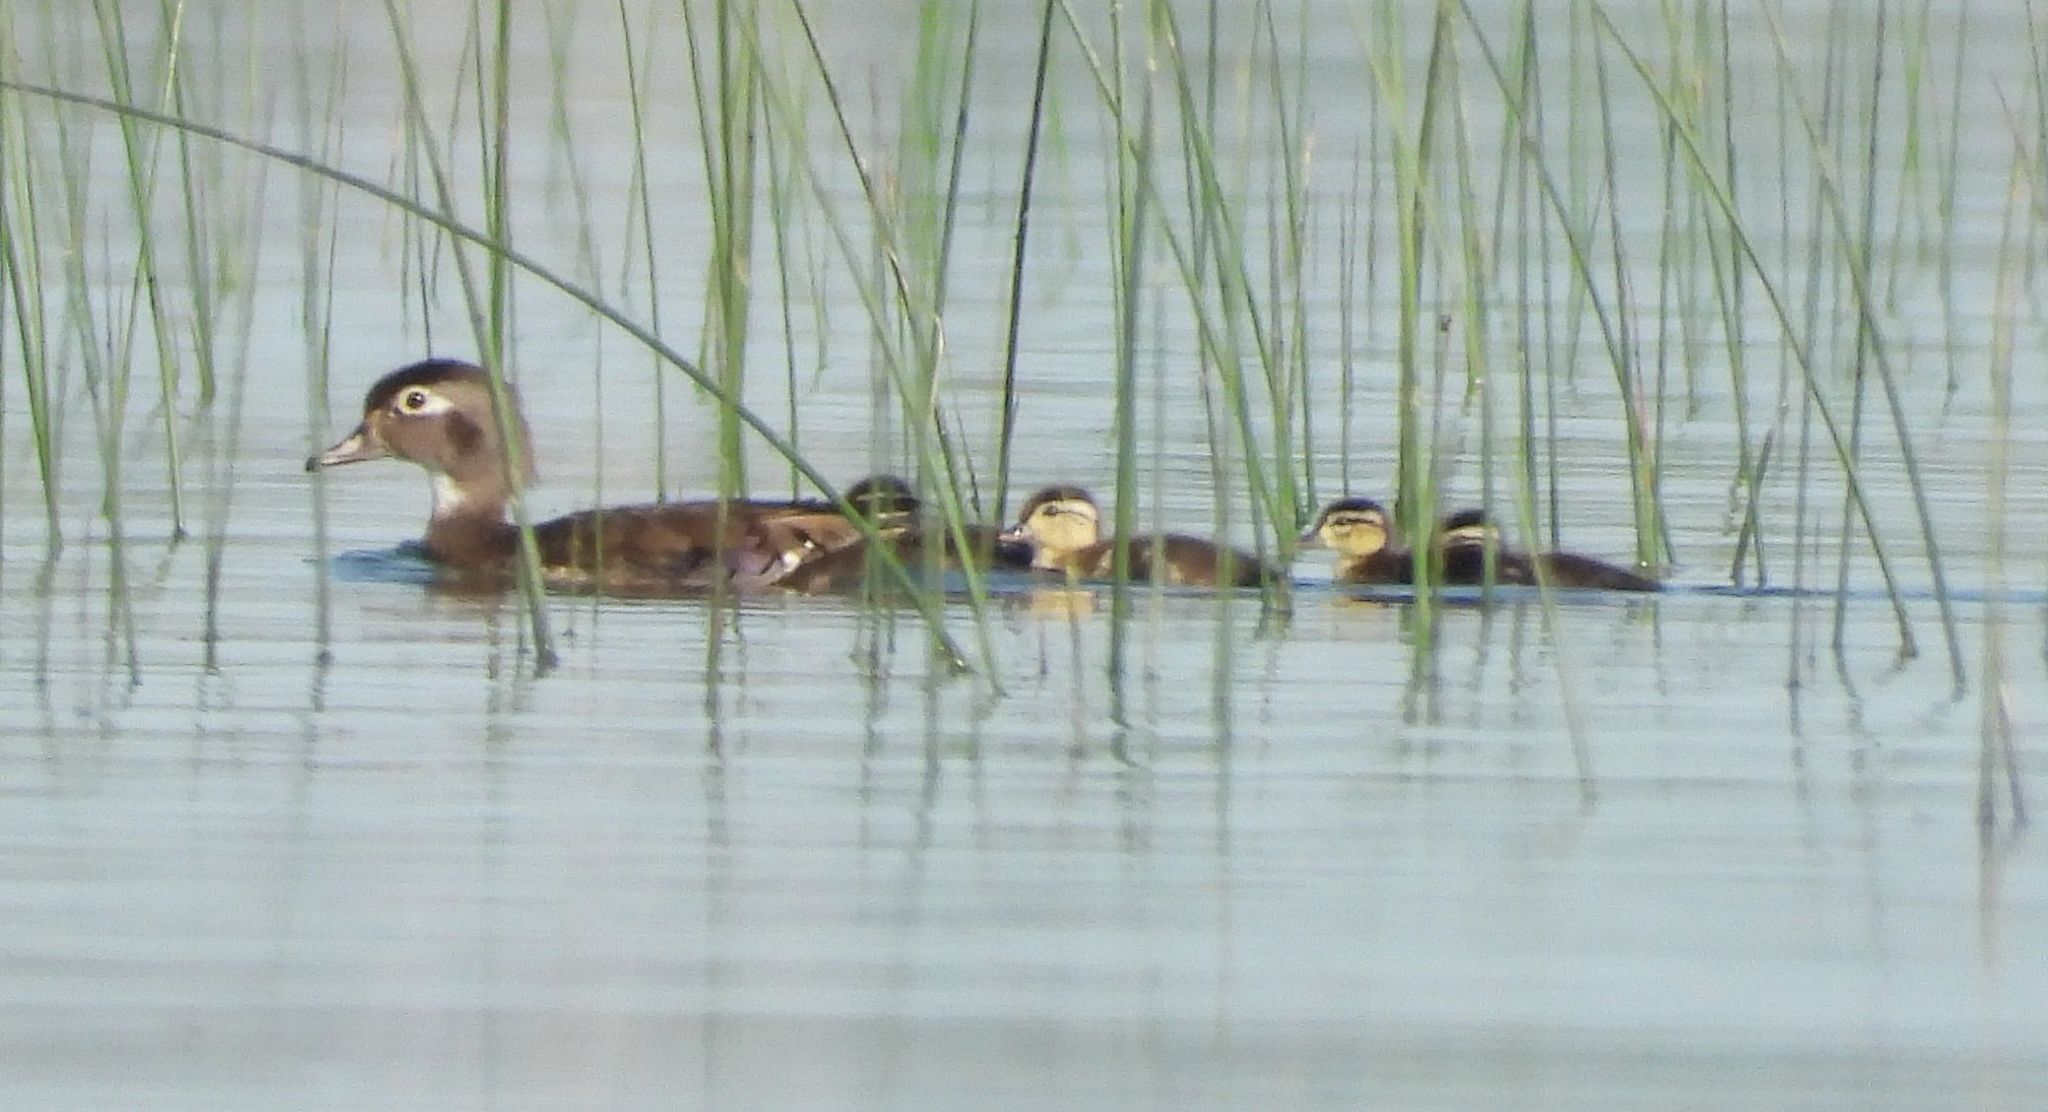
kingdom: Animalia
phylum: Chordata
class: Aves
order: Anseriformes
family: Anatidae
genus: Aix
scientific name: Aix sponsa
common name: Wood duck
